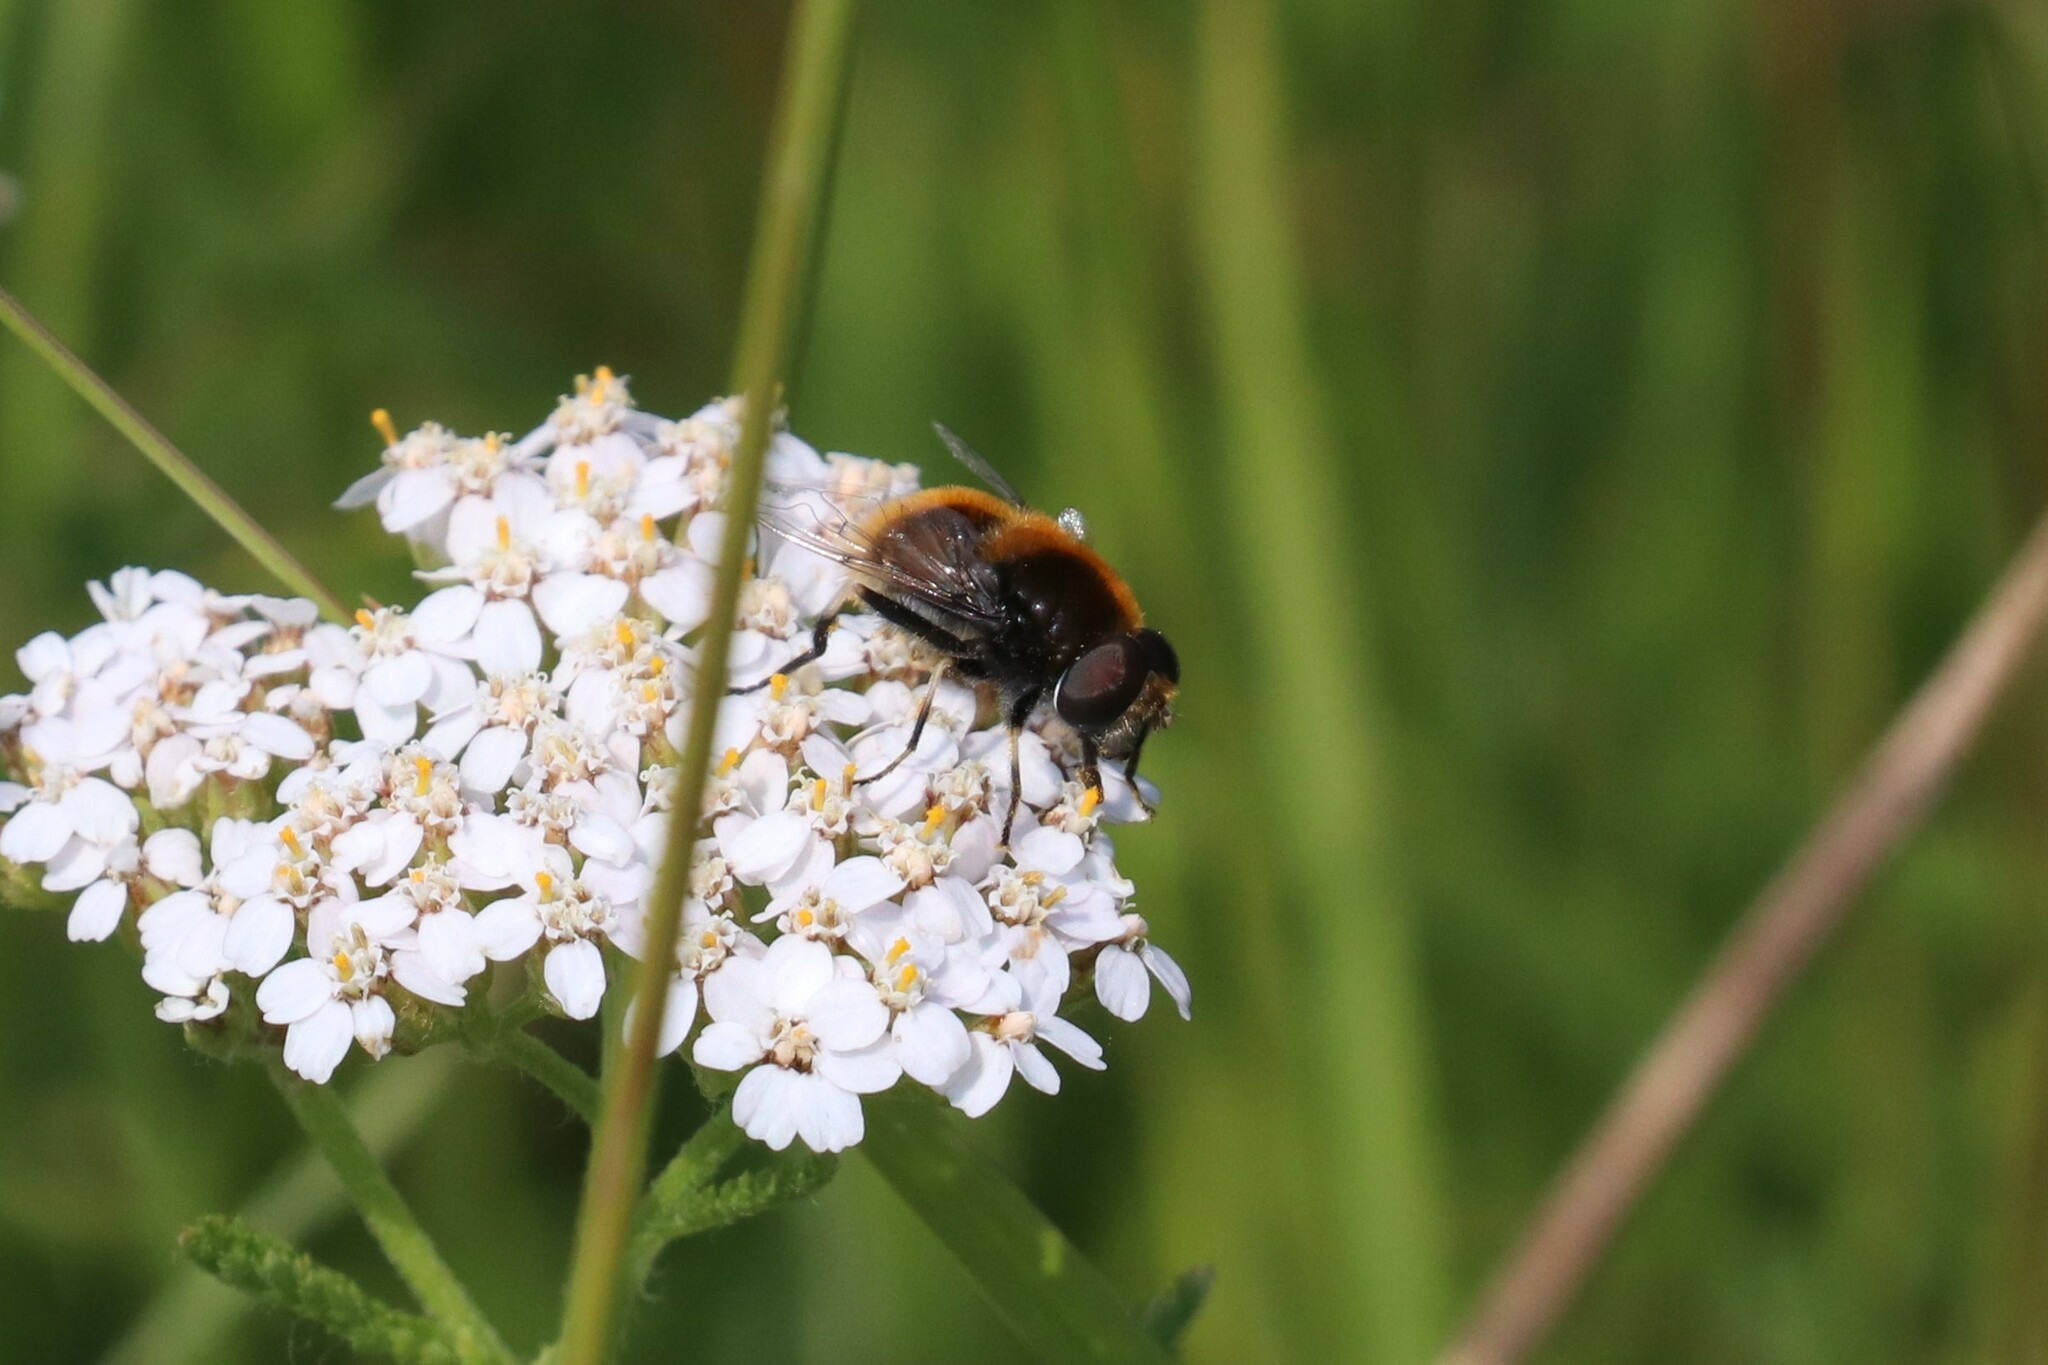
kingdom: Animalia
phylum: Arthropoda
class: Insecta
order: Diptera
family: Syrphidae
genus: Eristalis
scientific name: Eristalis intricaria
